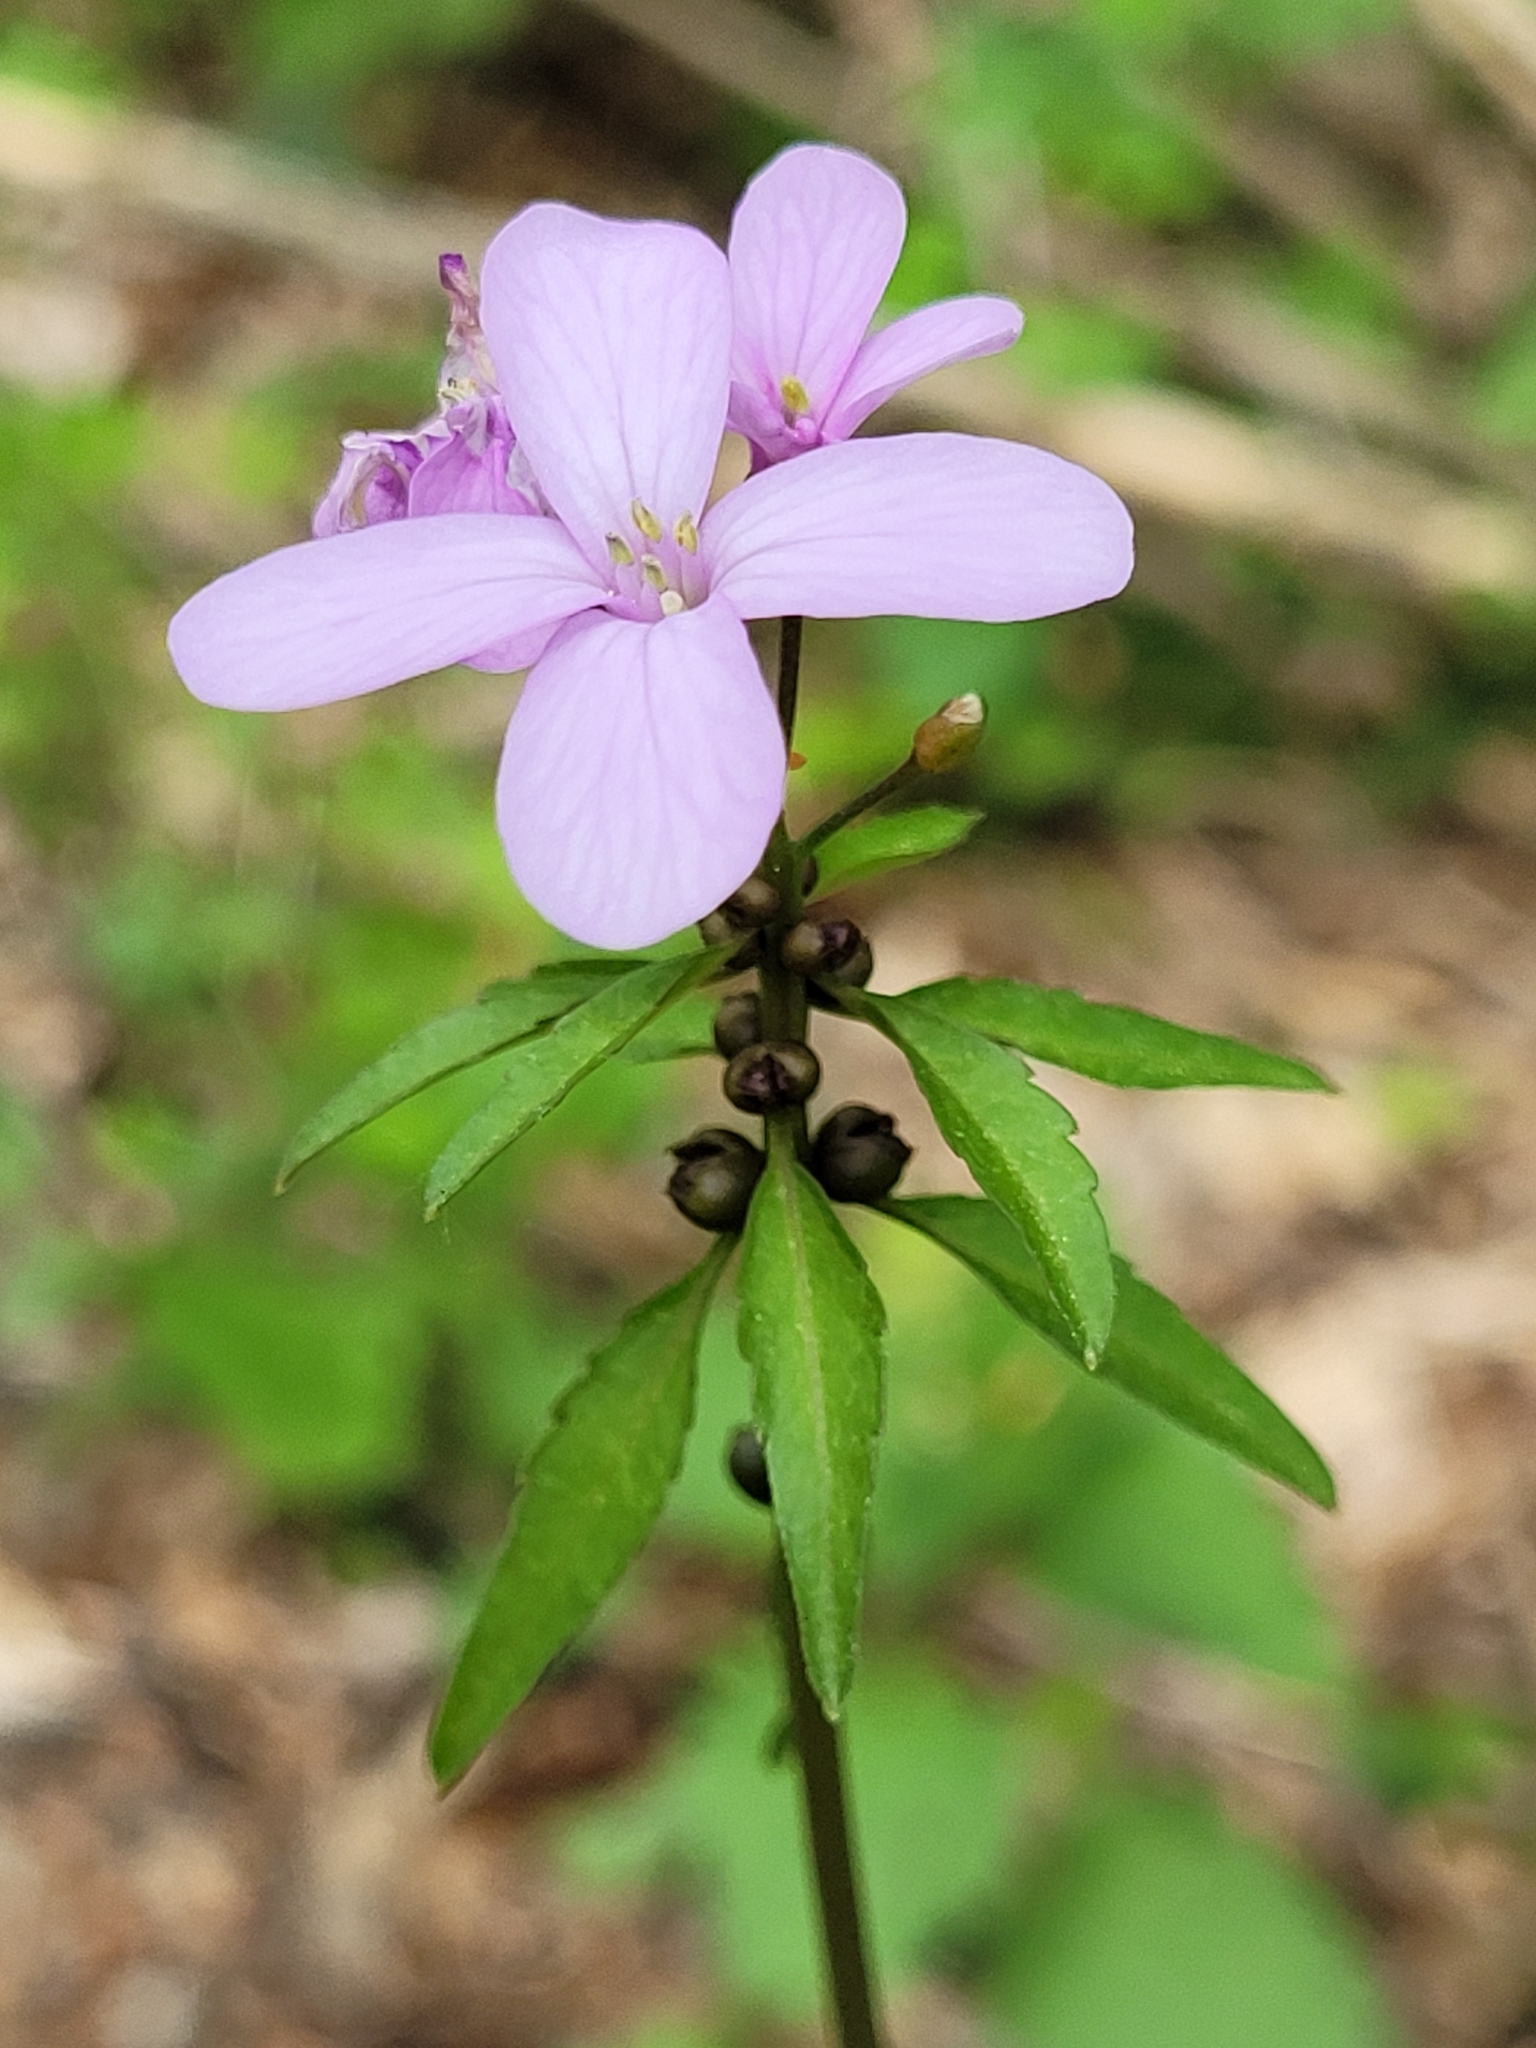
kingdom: Plantae
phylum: Tracheophyta
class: Magnoliopsida
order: Brassicales
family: Brassicaceae
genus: Cardamine
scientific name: Cardamine bulbifera
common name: Coralroot bittercress
